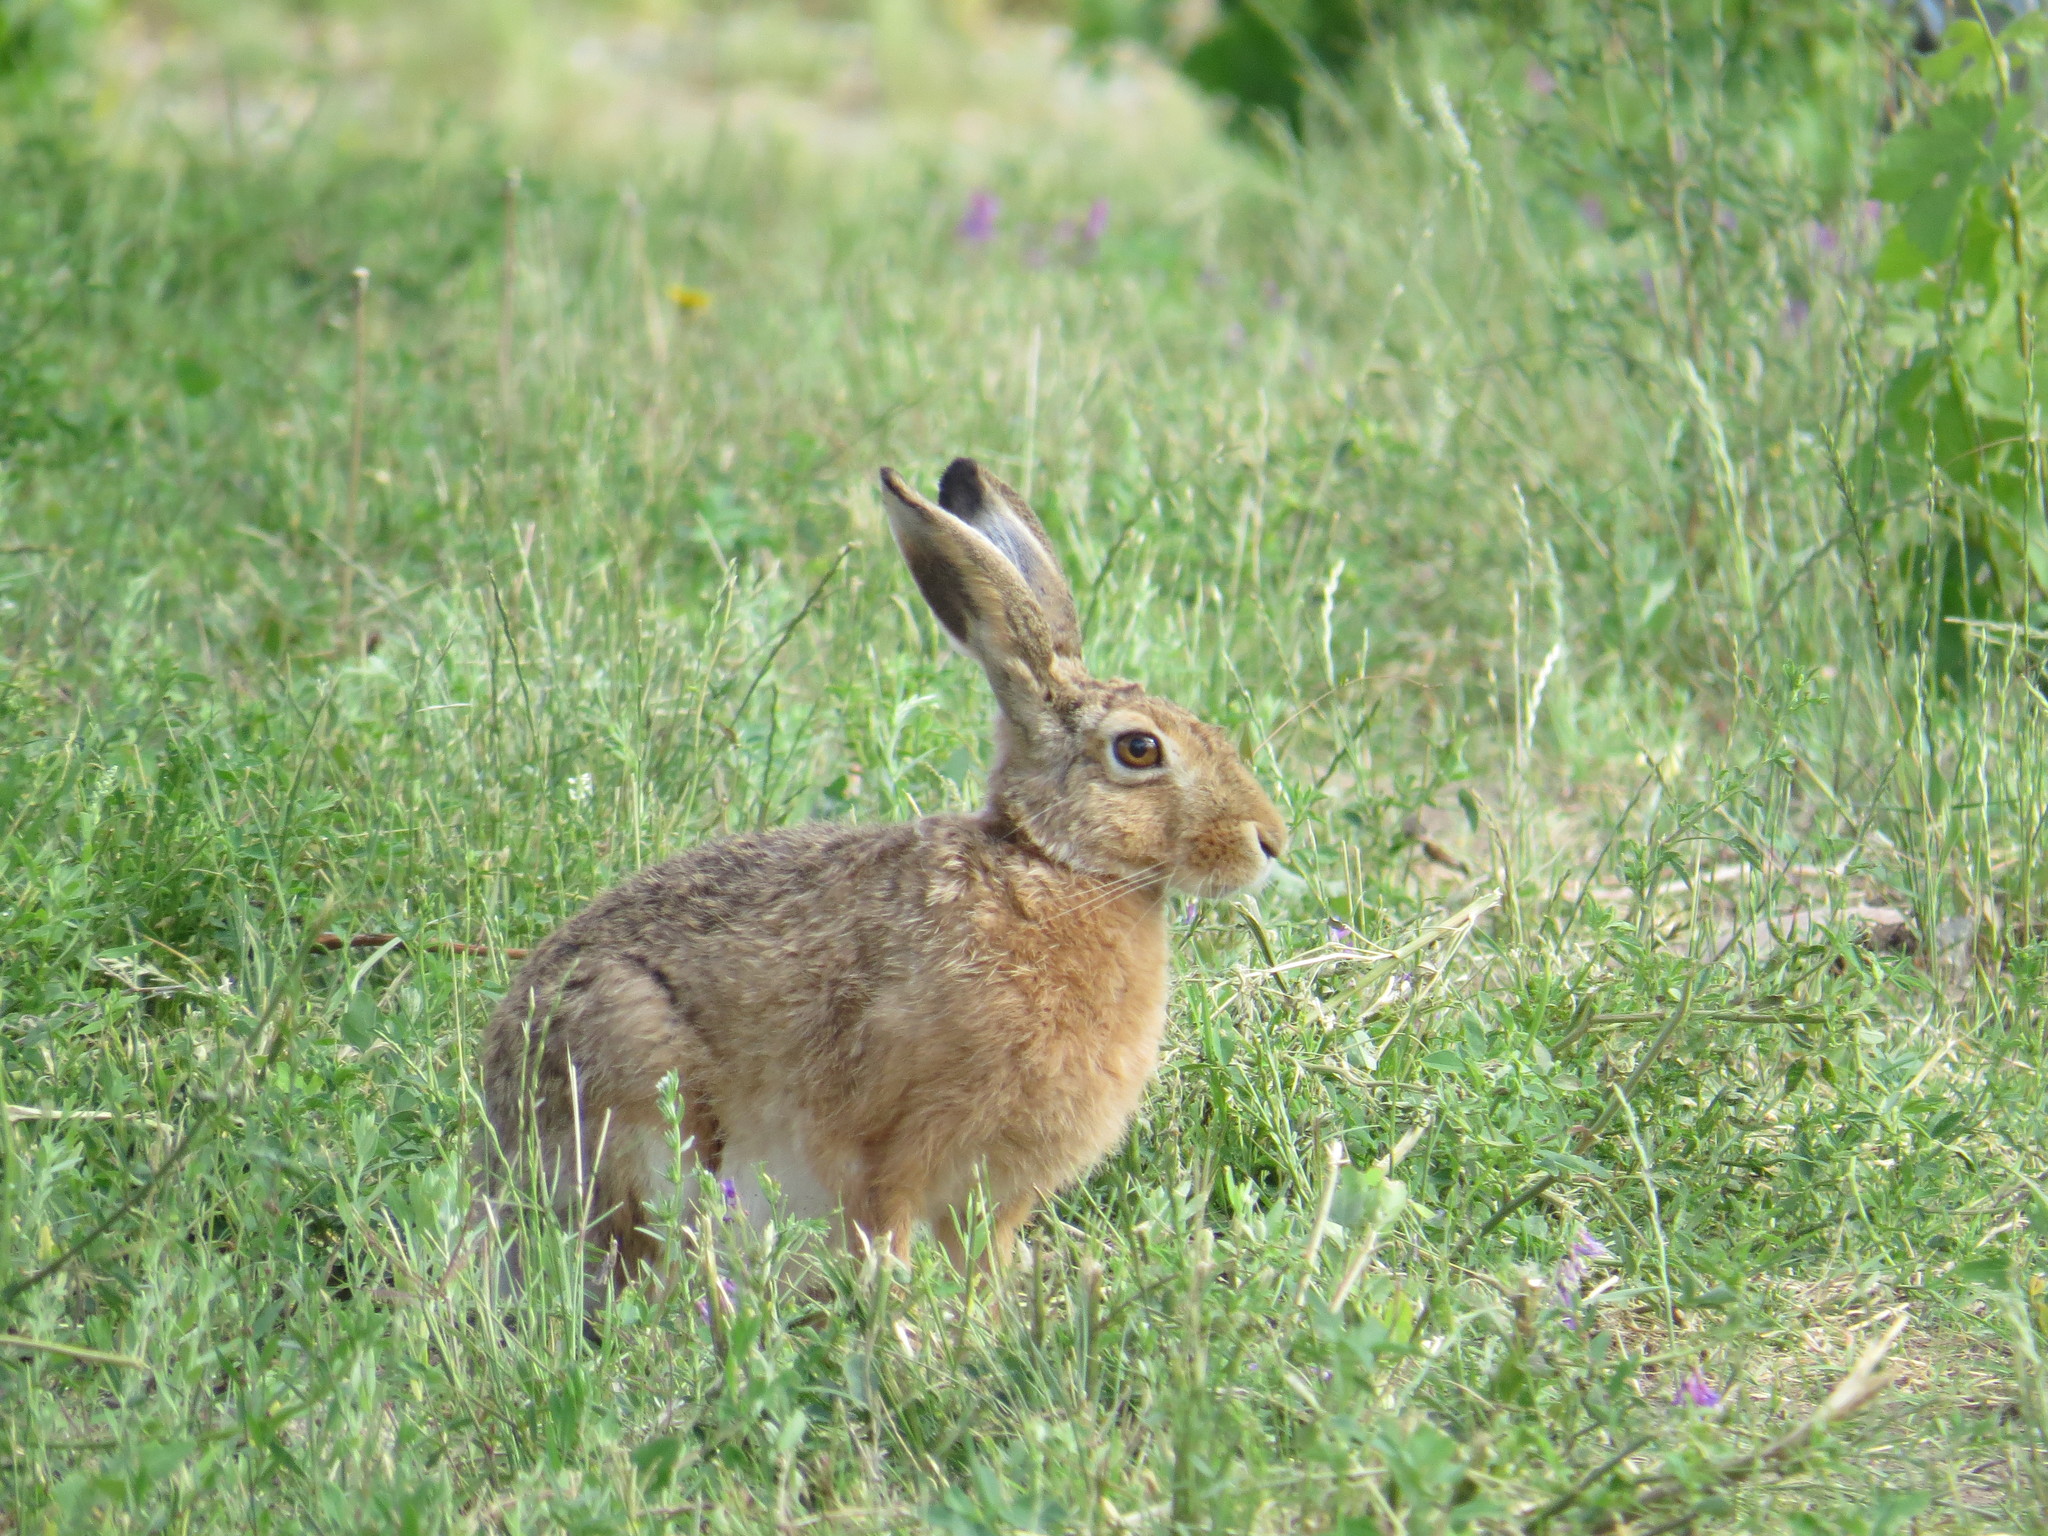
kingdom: Animalia
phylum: Chordata
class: Mammalia
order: Lagomorpha
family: Leporidae
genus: Lepus
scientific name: Lepus europaeus
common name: European hare
